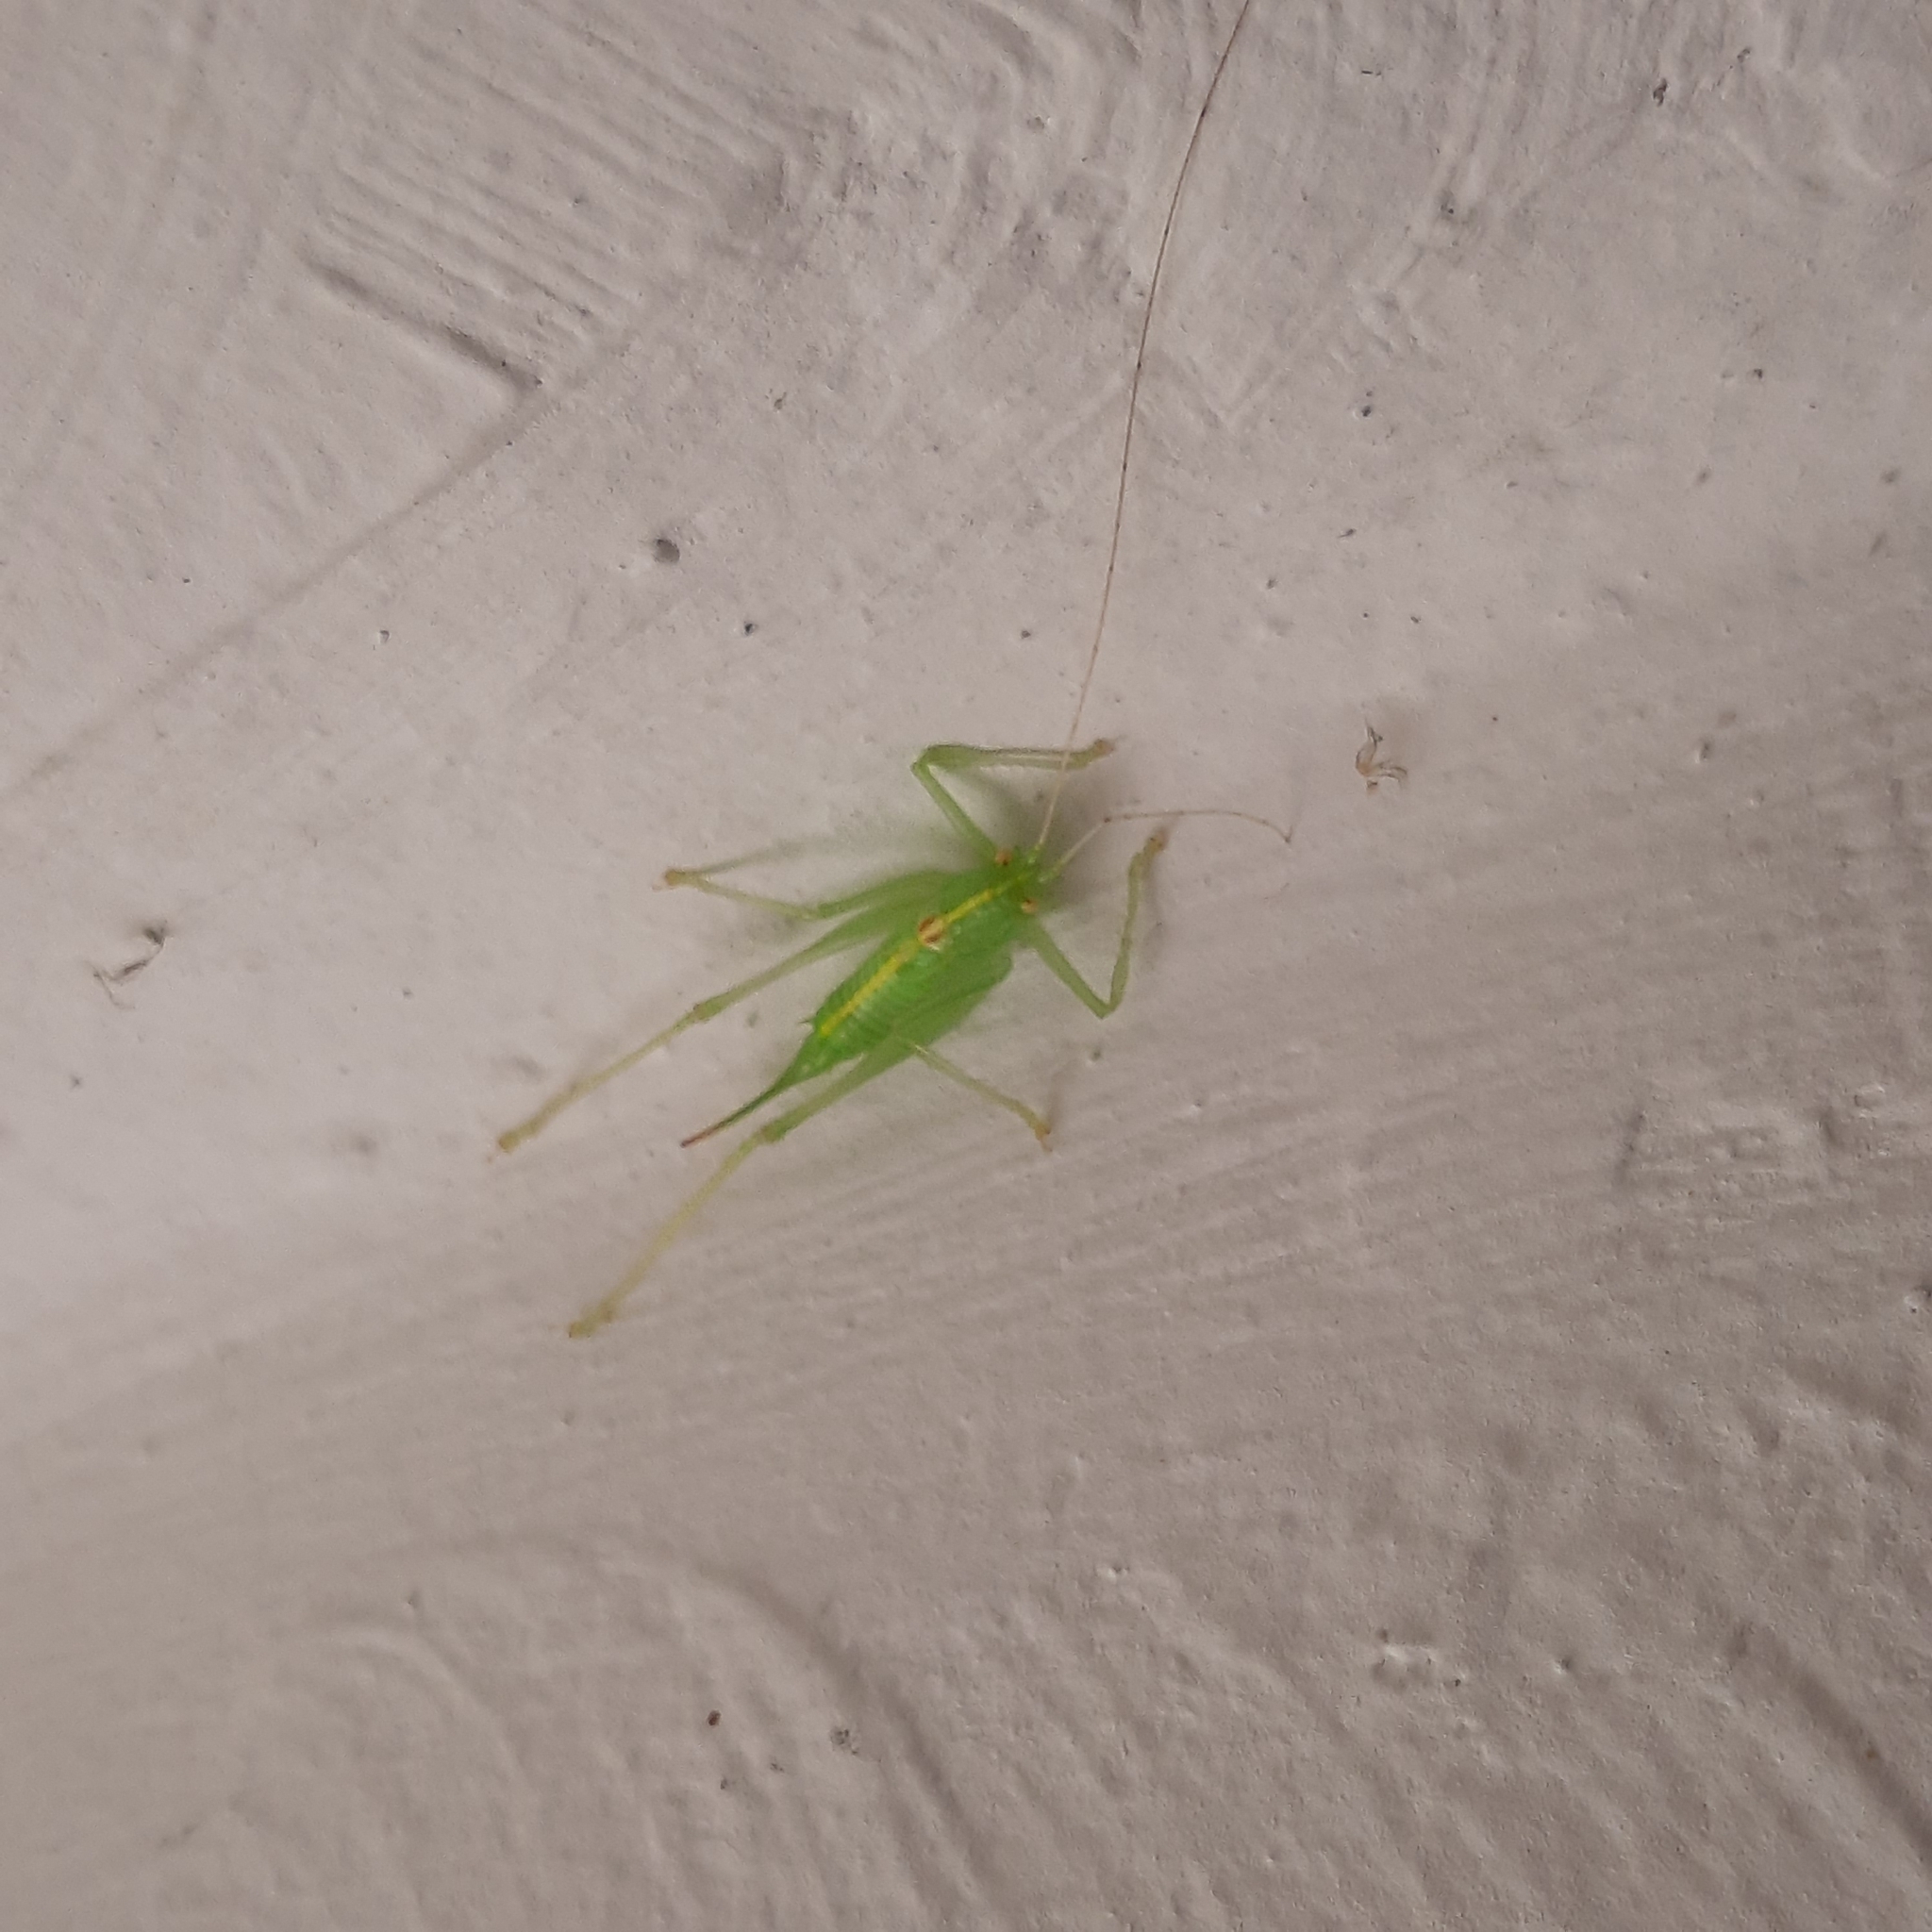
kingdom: Animalia
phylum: Arthropoda
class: Insecta
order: Orthoptera
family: Tettigoniidae
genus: Meconema
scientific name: Meconema meridionale
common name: Southern oak bush-cricket
